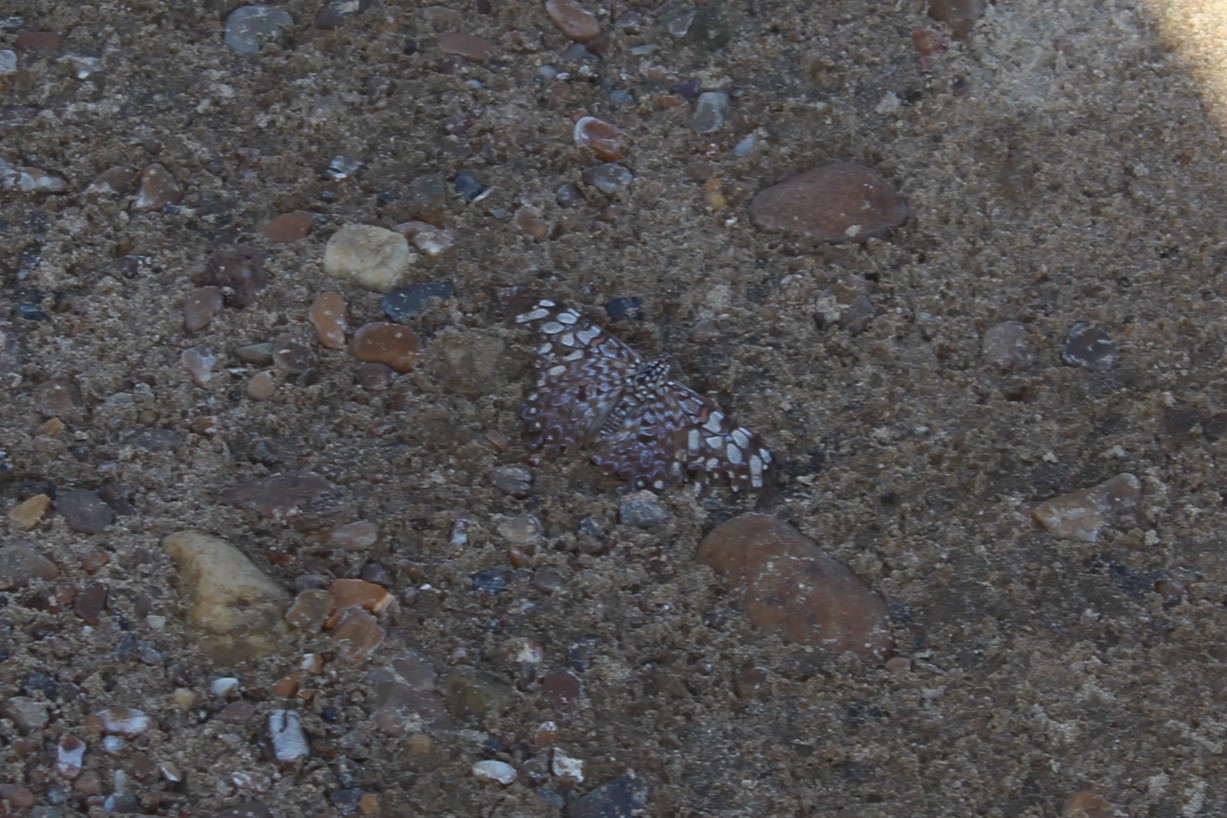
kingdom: Animalia
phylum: Arthropoda
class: Insecta
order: Lepidoptera
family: Nymphalidae
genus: Hamadryas
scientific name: Hamadryas feronia
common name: Variable cracker
